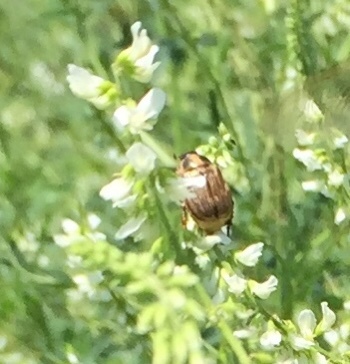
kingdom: Animalia
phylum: Arthropoda
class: Insecta
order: Coleoptera
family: Scarabaeidae
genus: Exomala
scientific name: Exomala orientalis
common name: Oriental beetle
